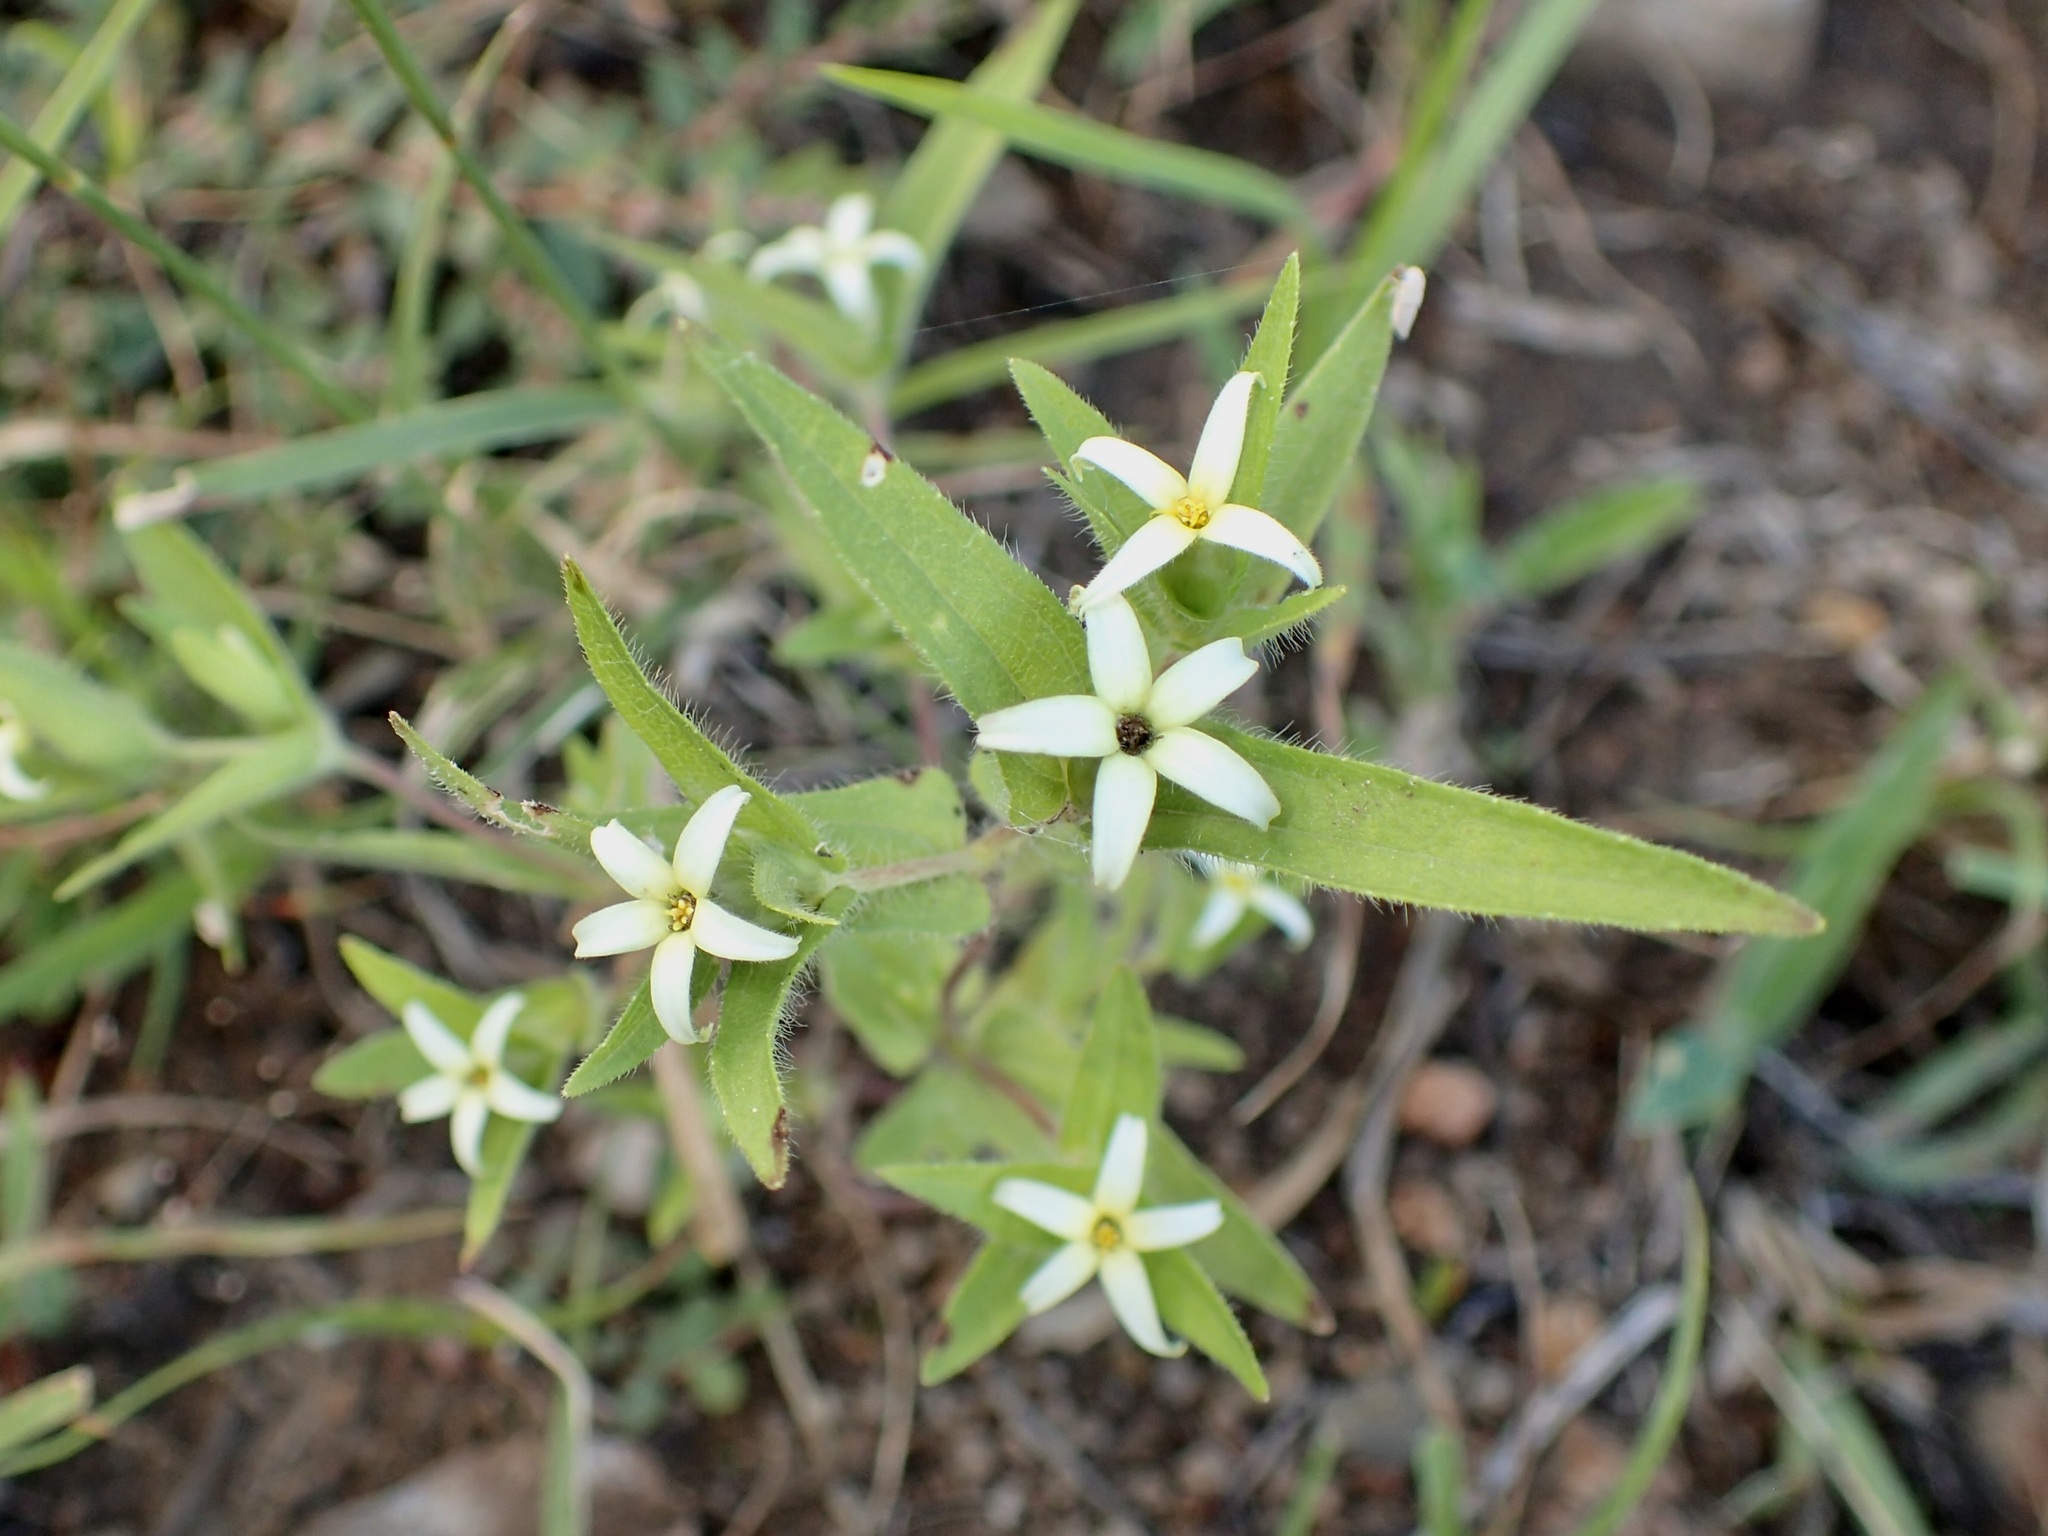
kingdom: Plantae
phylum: Tracheophyta
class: Magnoliopsida
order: Asterales
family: Asteraceae
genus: Zinnia
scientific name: Zinnia zinnioides
